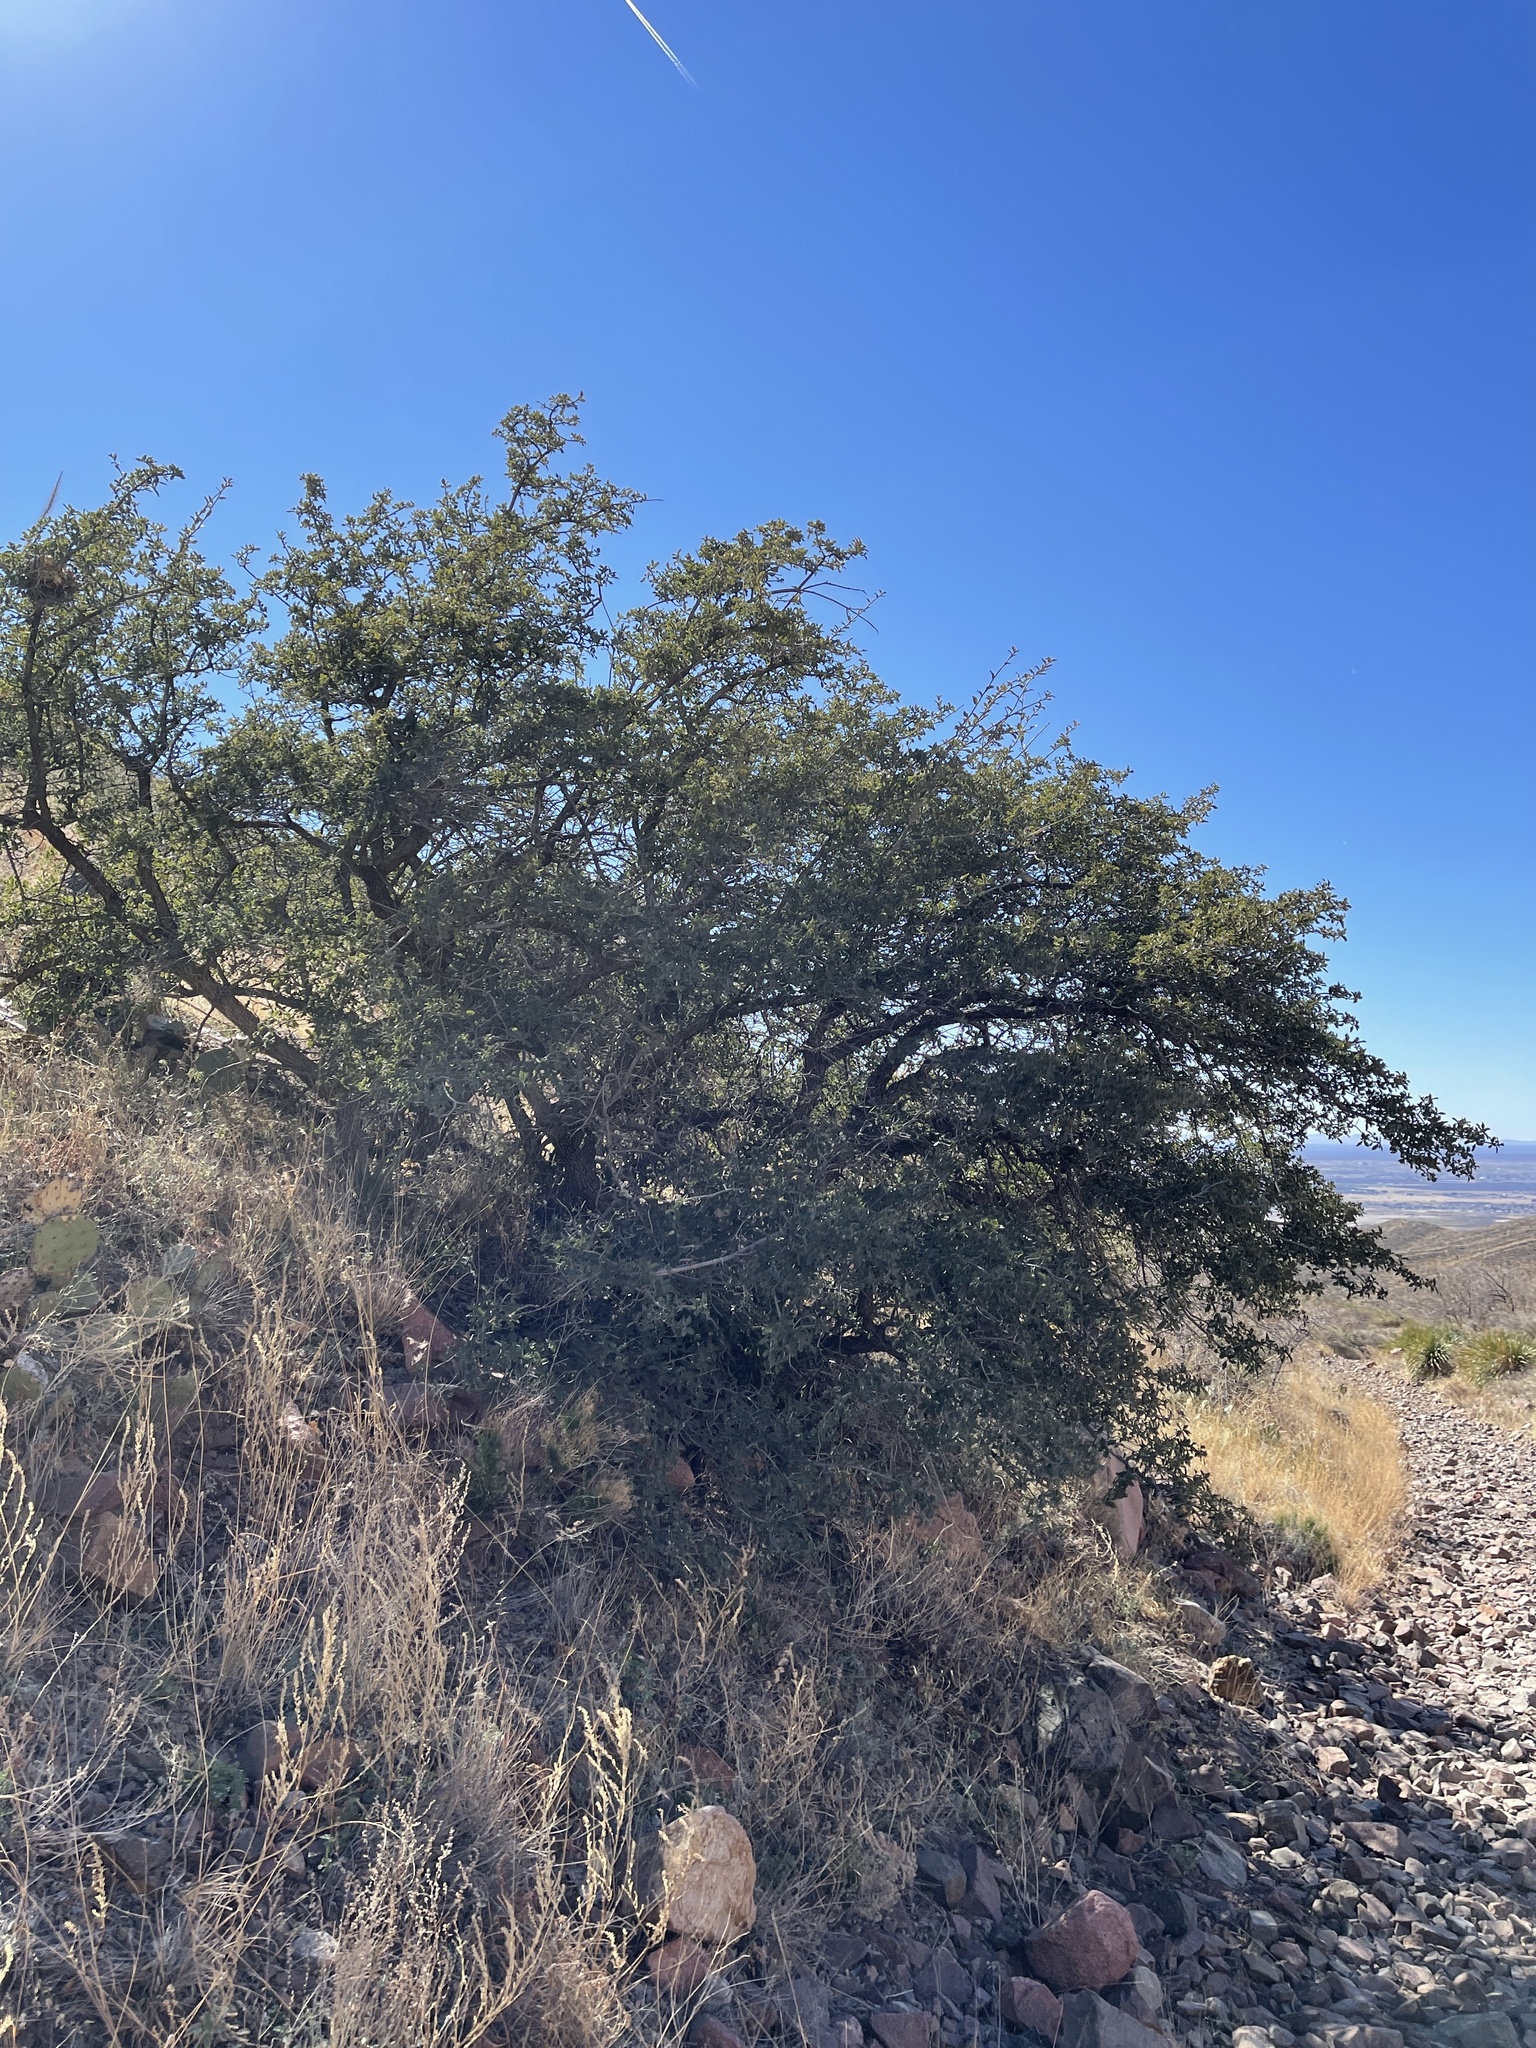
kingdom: Plantae
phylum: Tracheophyta
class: Magnoliopsida
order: Fagales
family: Fagaceae
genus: Quercus
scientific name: Quercus turbinella
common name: Sonoran scrub oak
